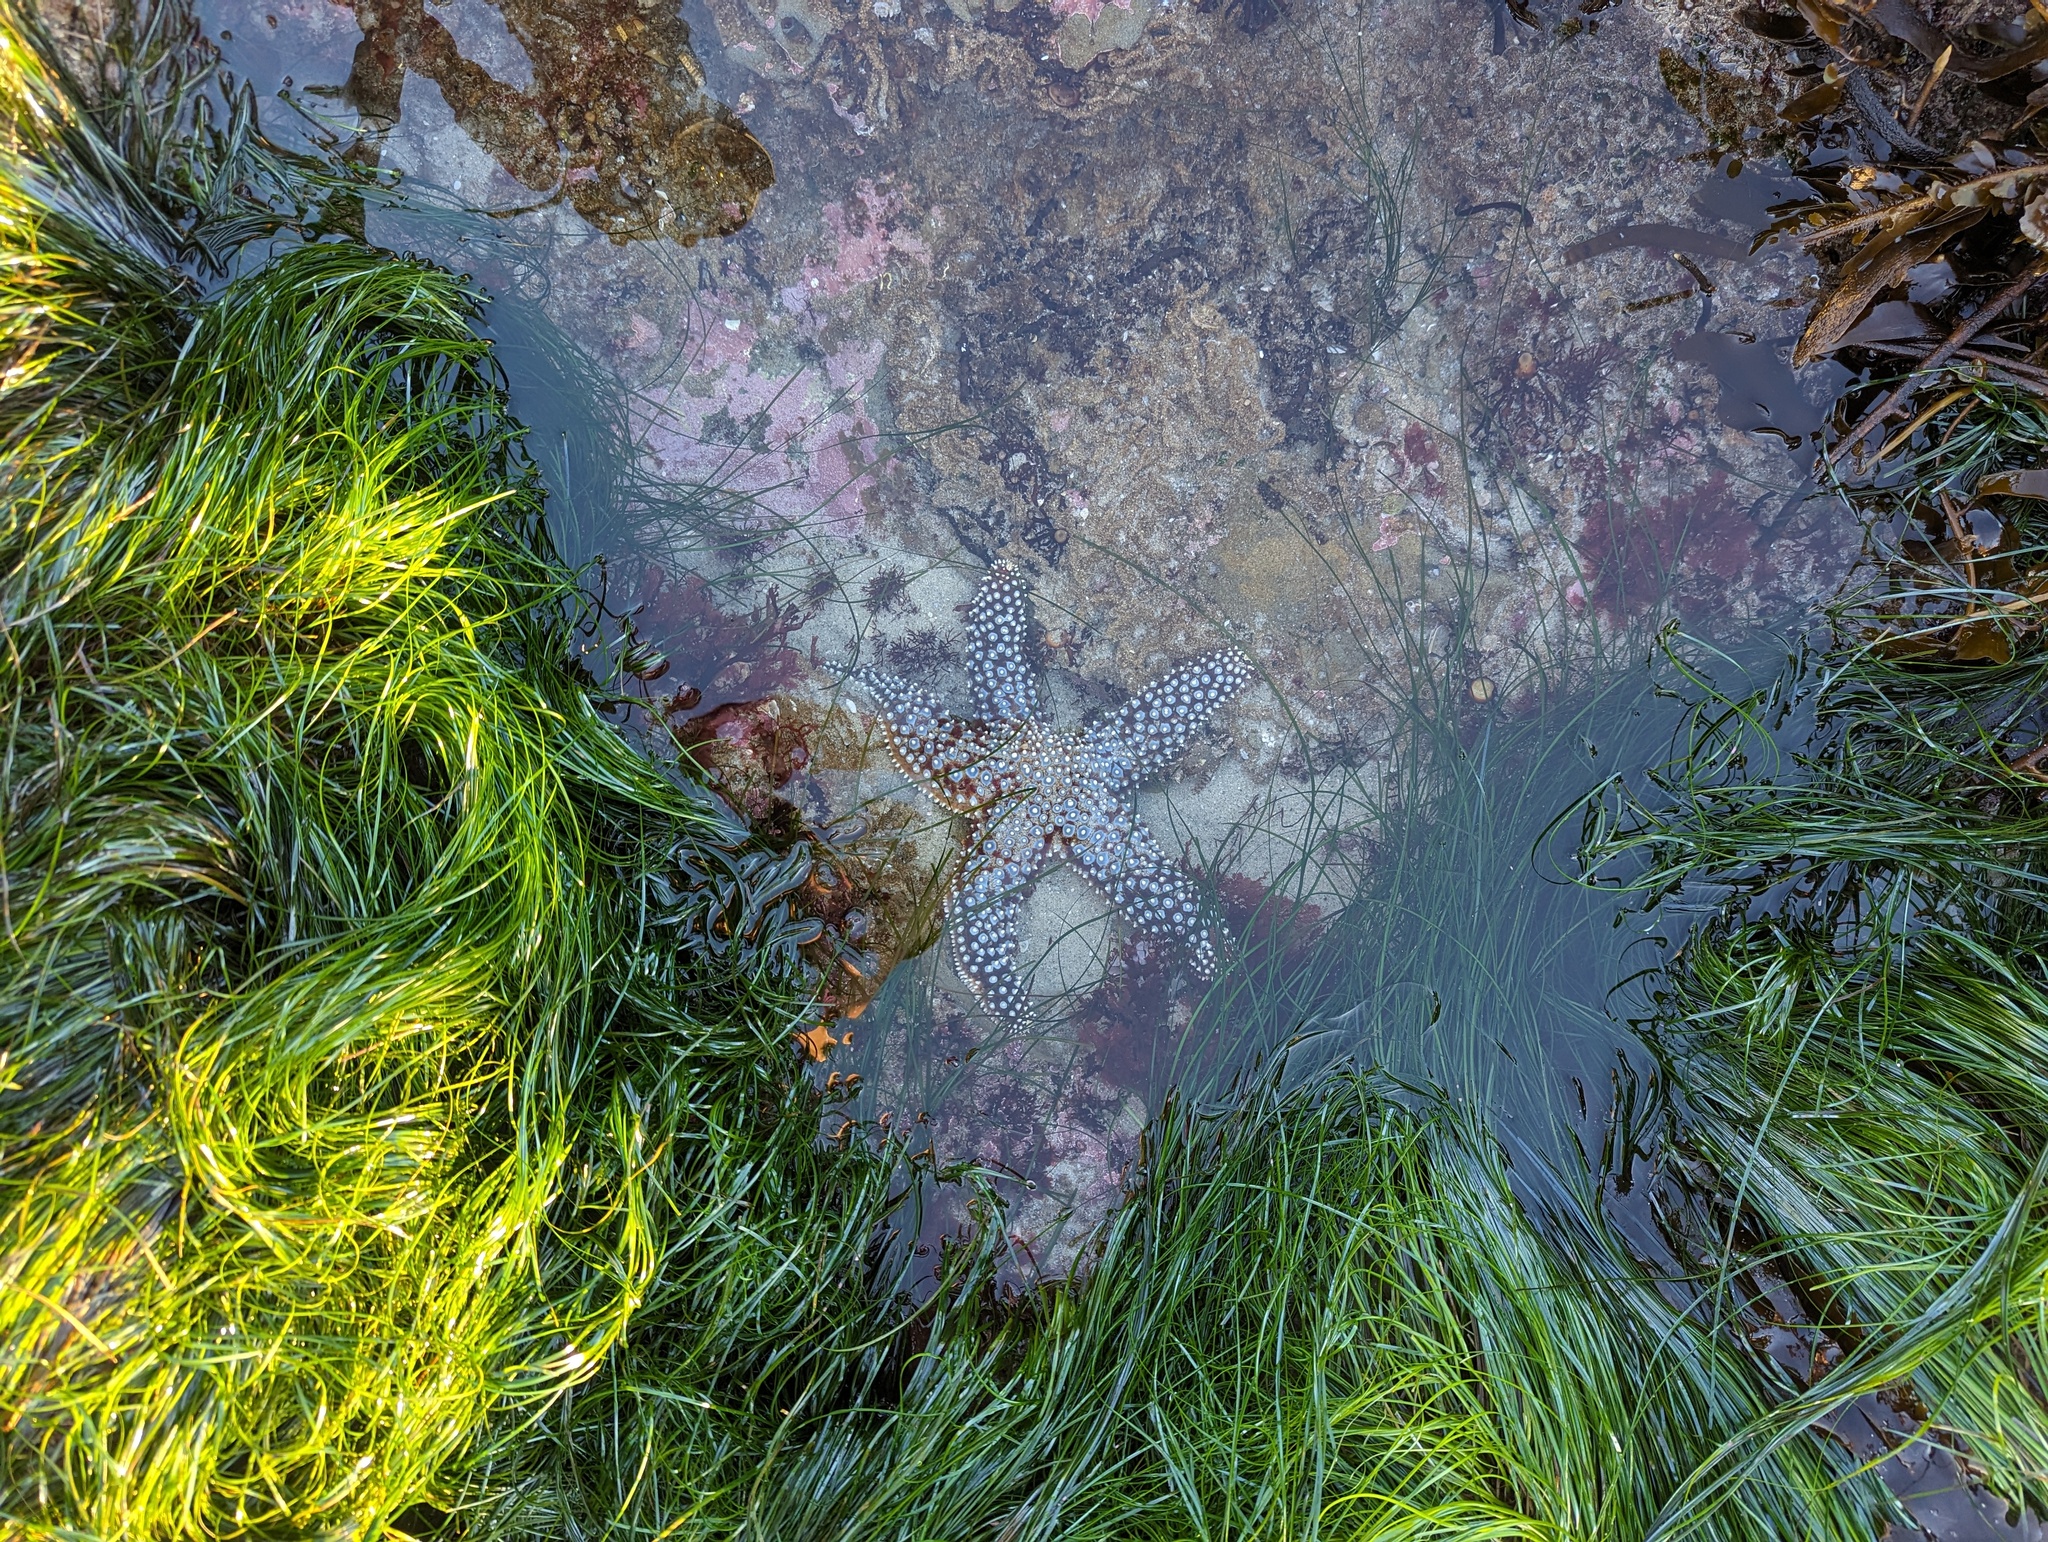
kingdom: Animalia
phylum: Echinodermata
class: Asteroidea
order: Forcipulatida
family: Asteriidae
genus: Pisaster
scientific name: Pisaster giganteus
